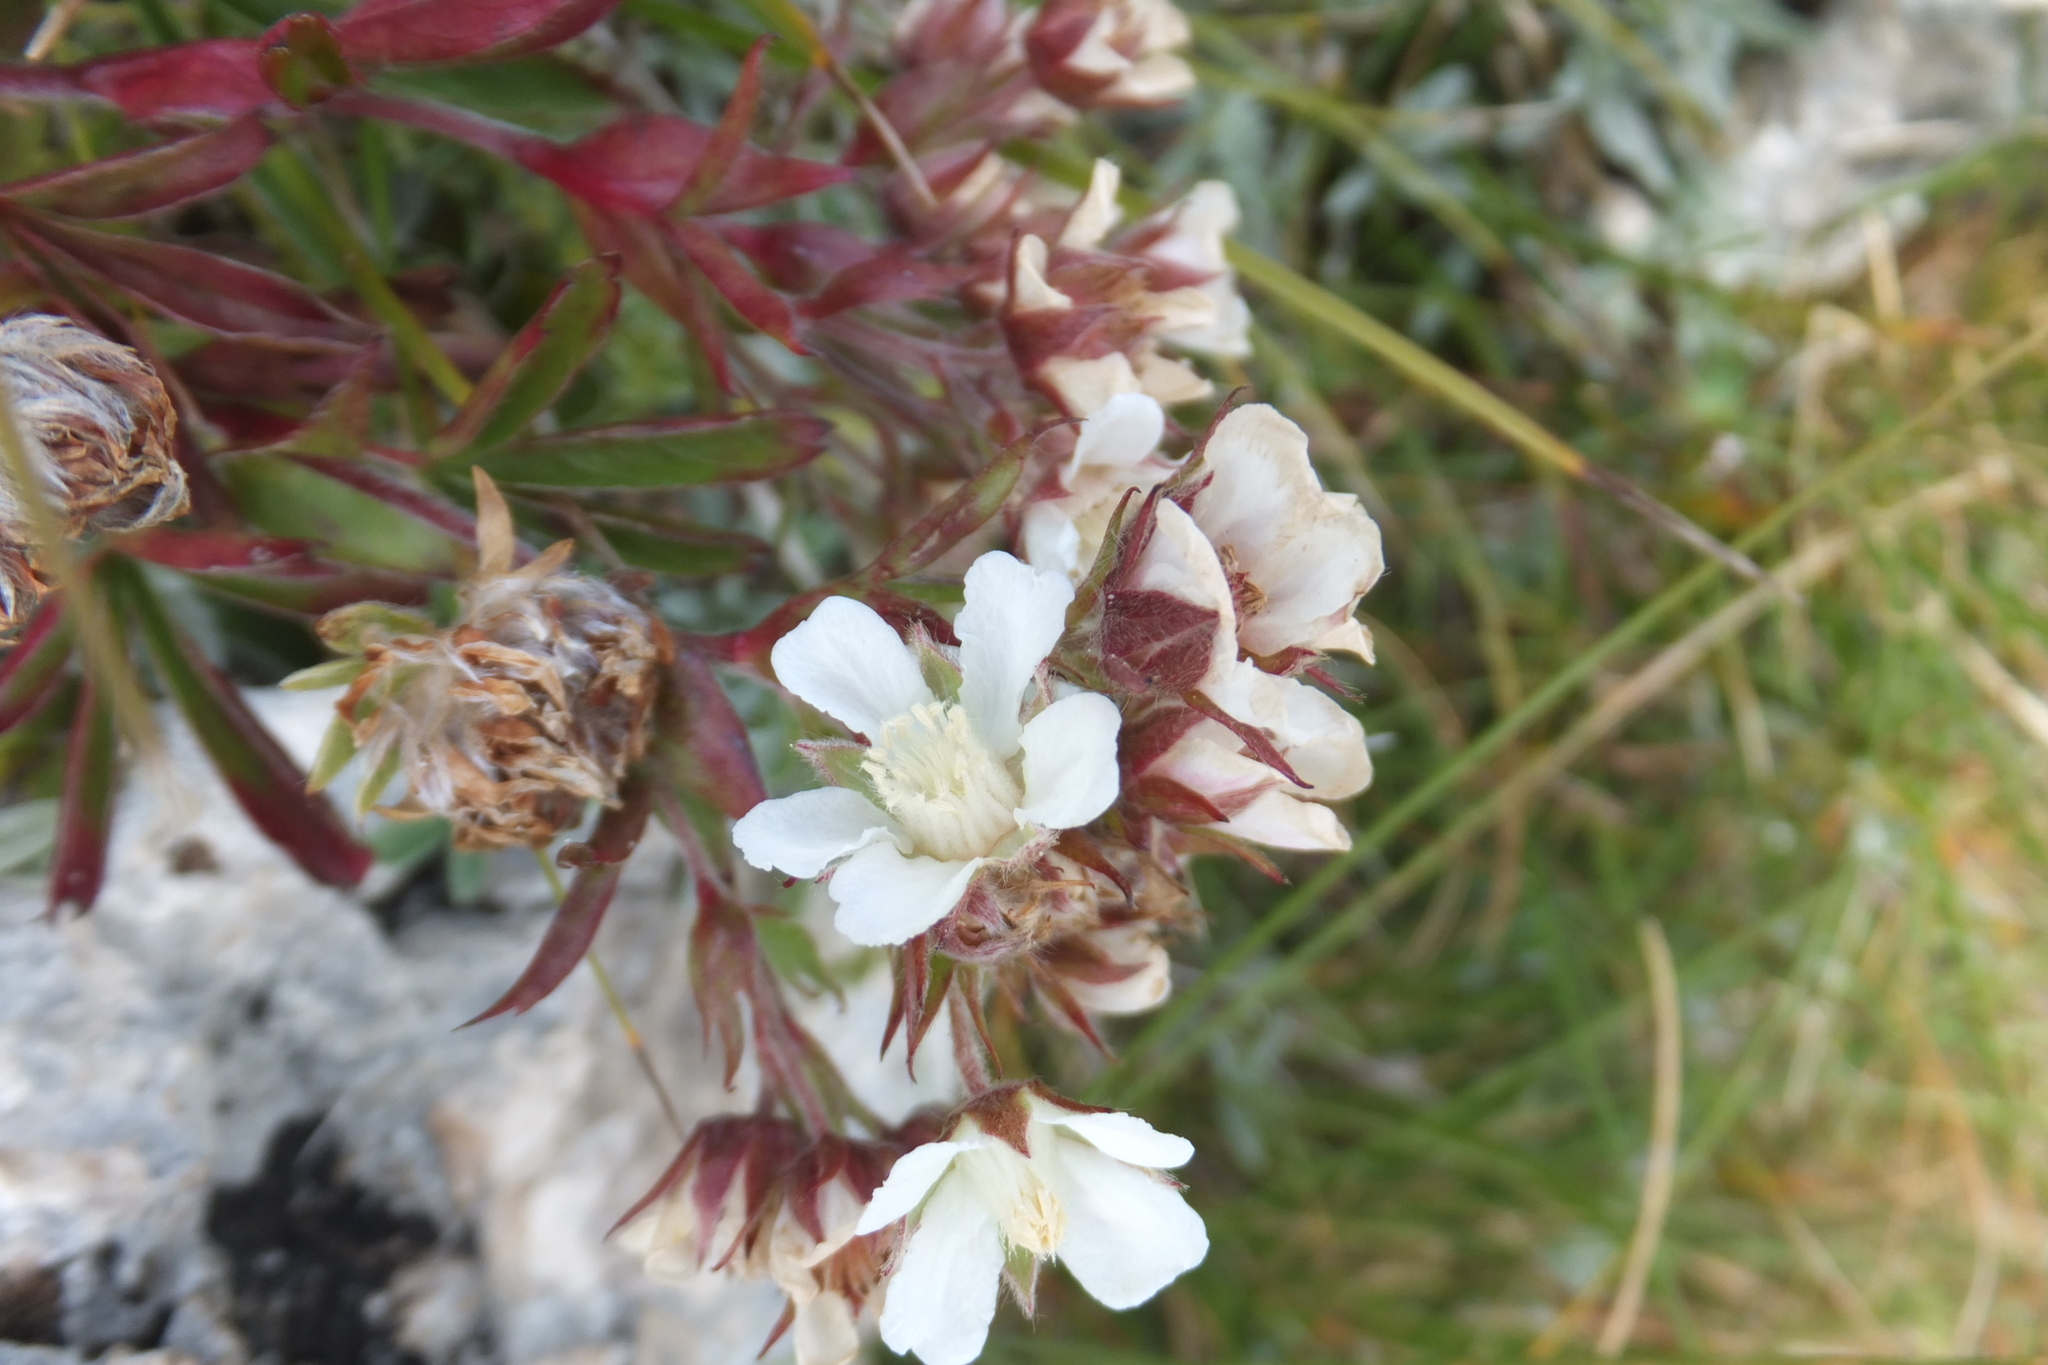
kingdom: Plantae
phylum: Tracheophyta
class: Magnoliopsida
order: Rosales
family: Rosaceae
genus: Potentilla
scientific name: Potentilla caulescens
